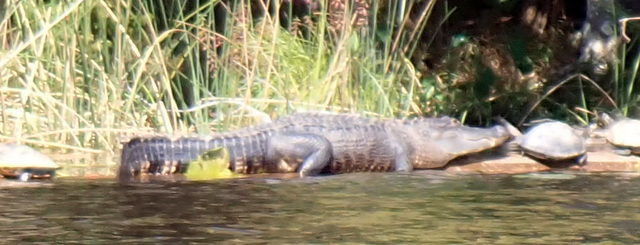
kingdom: Animalia
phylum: Chordata
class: Crocodylia
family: Alligatoridae
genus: Alligator
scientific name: Alligator mississippiensis
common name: American alligator
